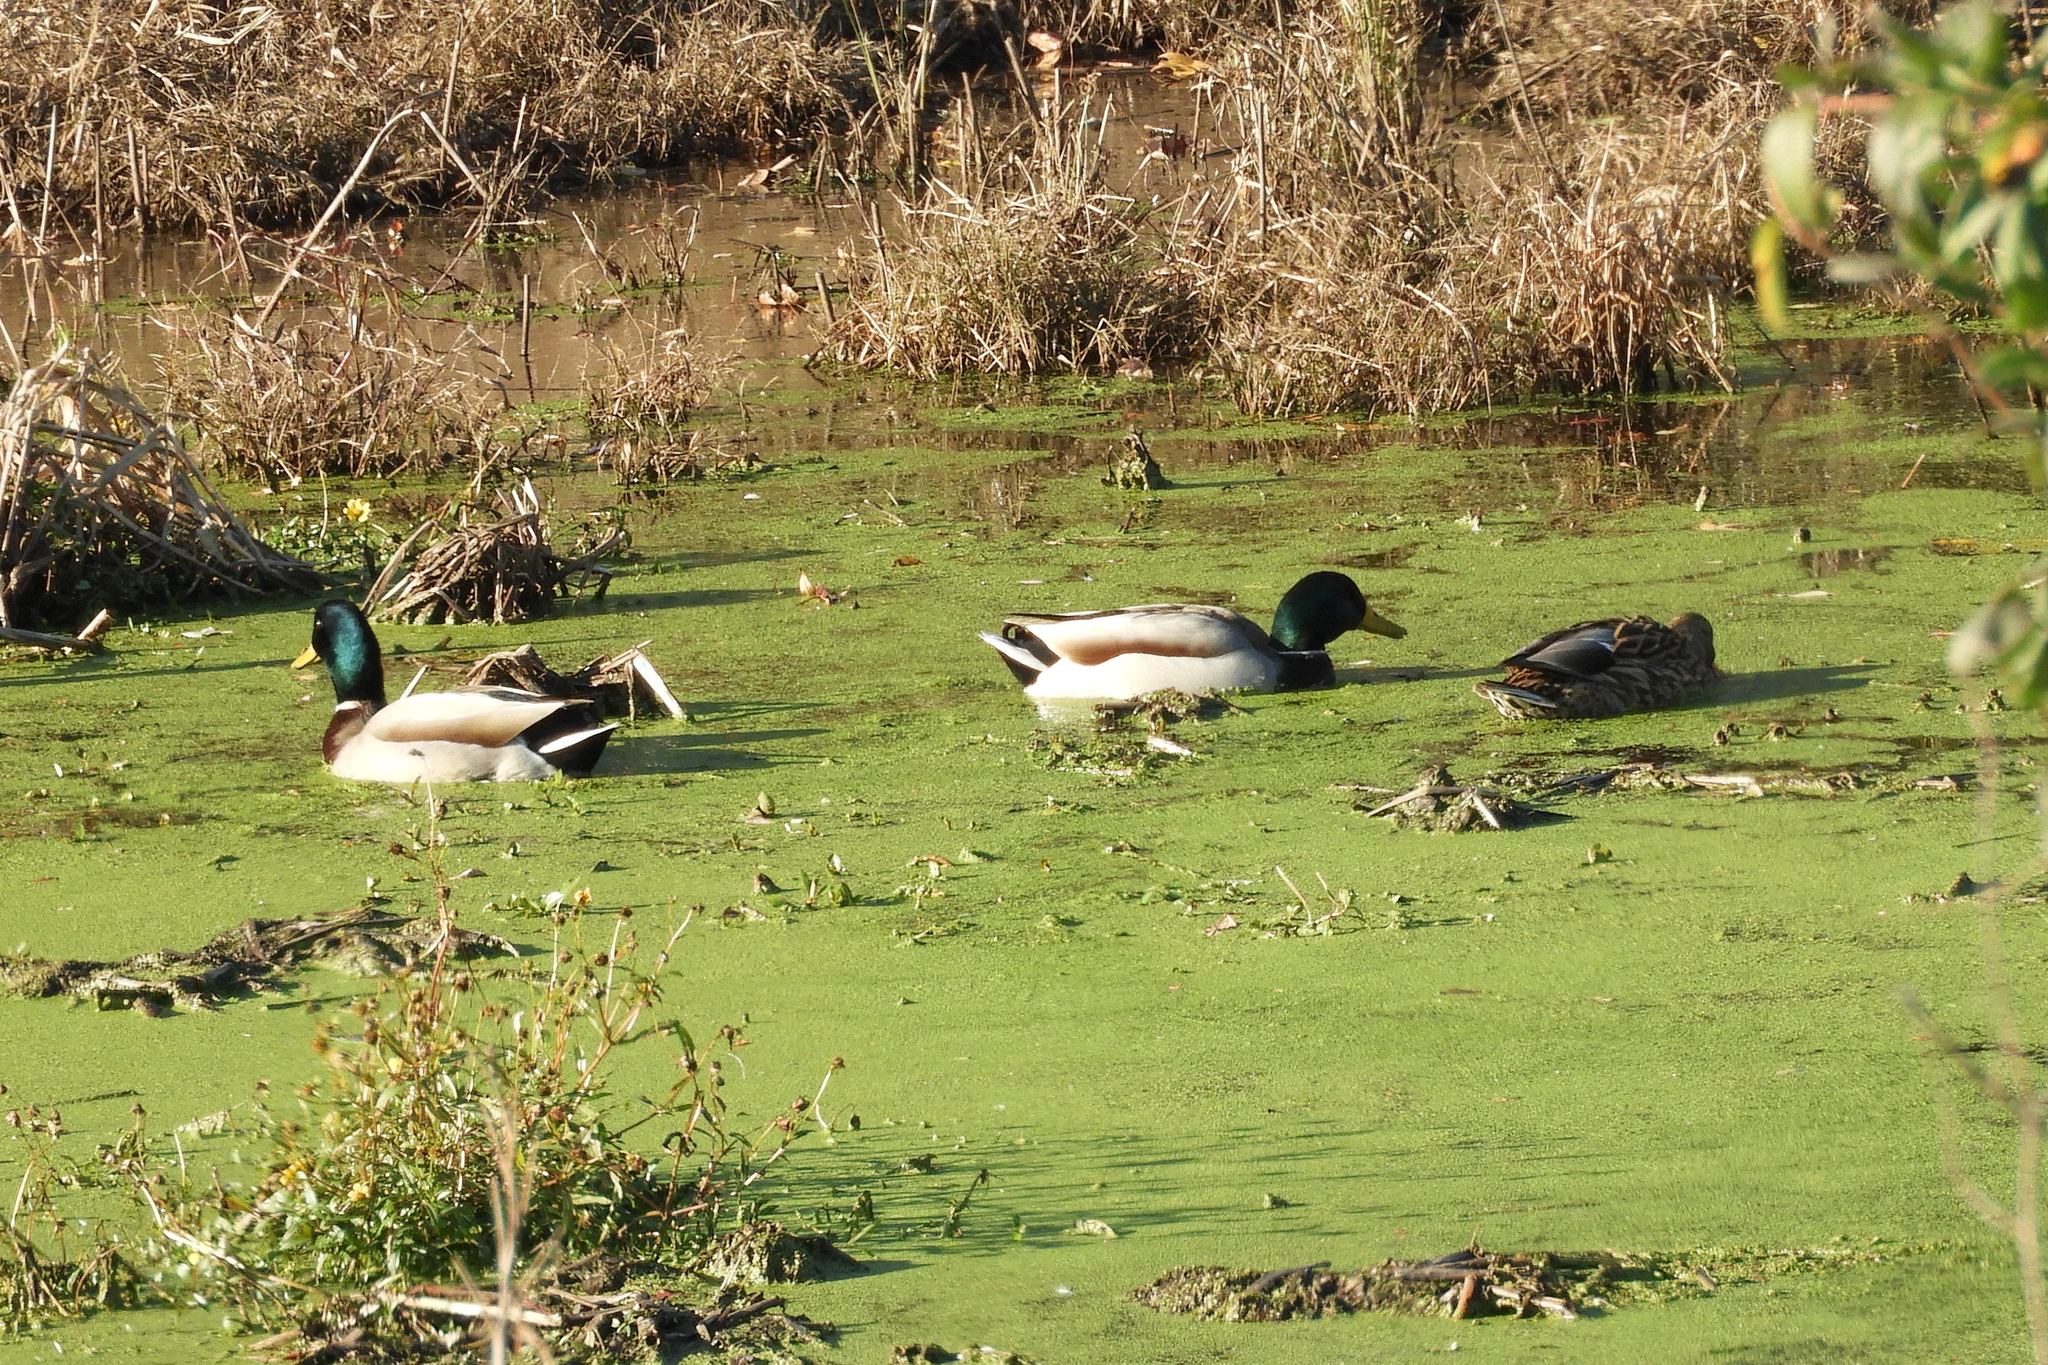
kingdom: Animalia
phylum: Chordata
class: Aves
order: Anseriformes
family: Anatidae
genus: Anas
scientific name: Anas platyrhynchos
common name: Mallard
